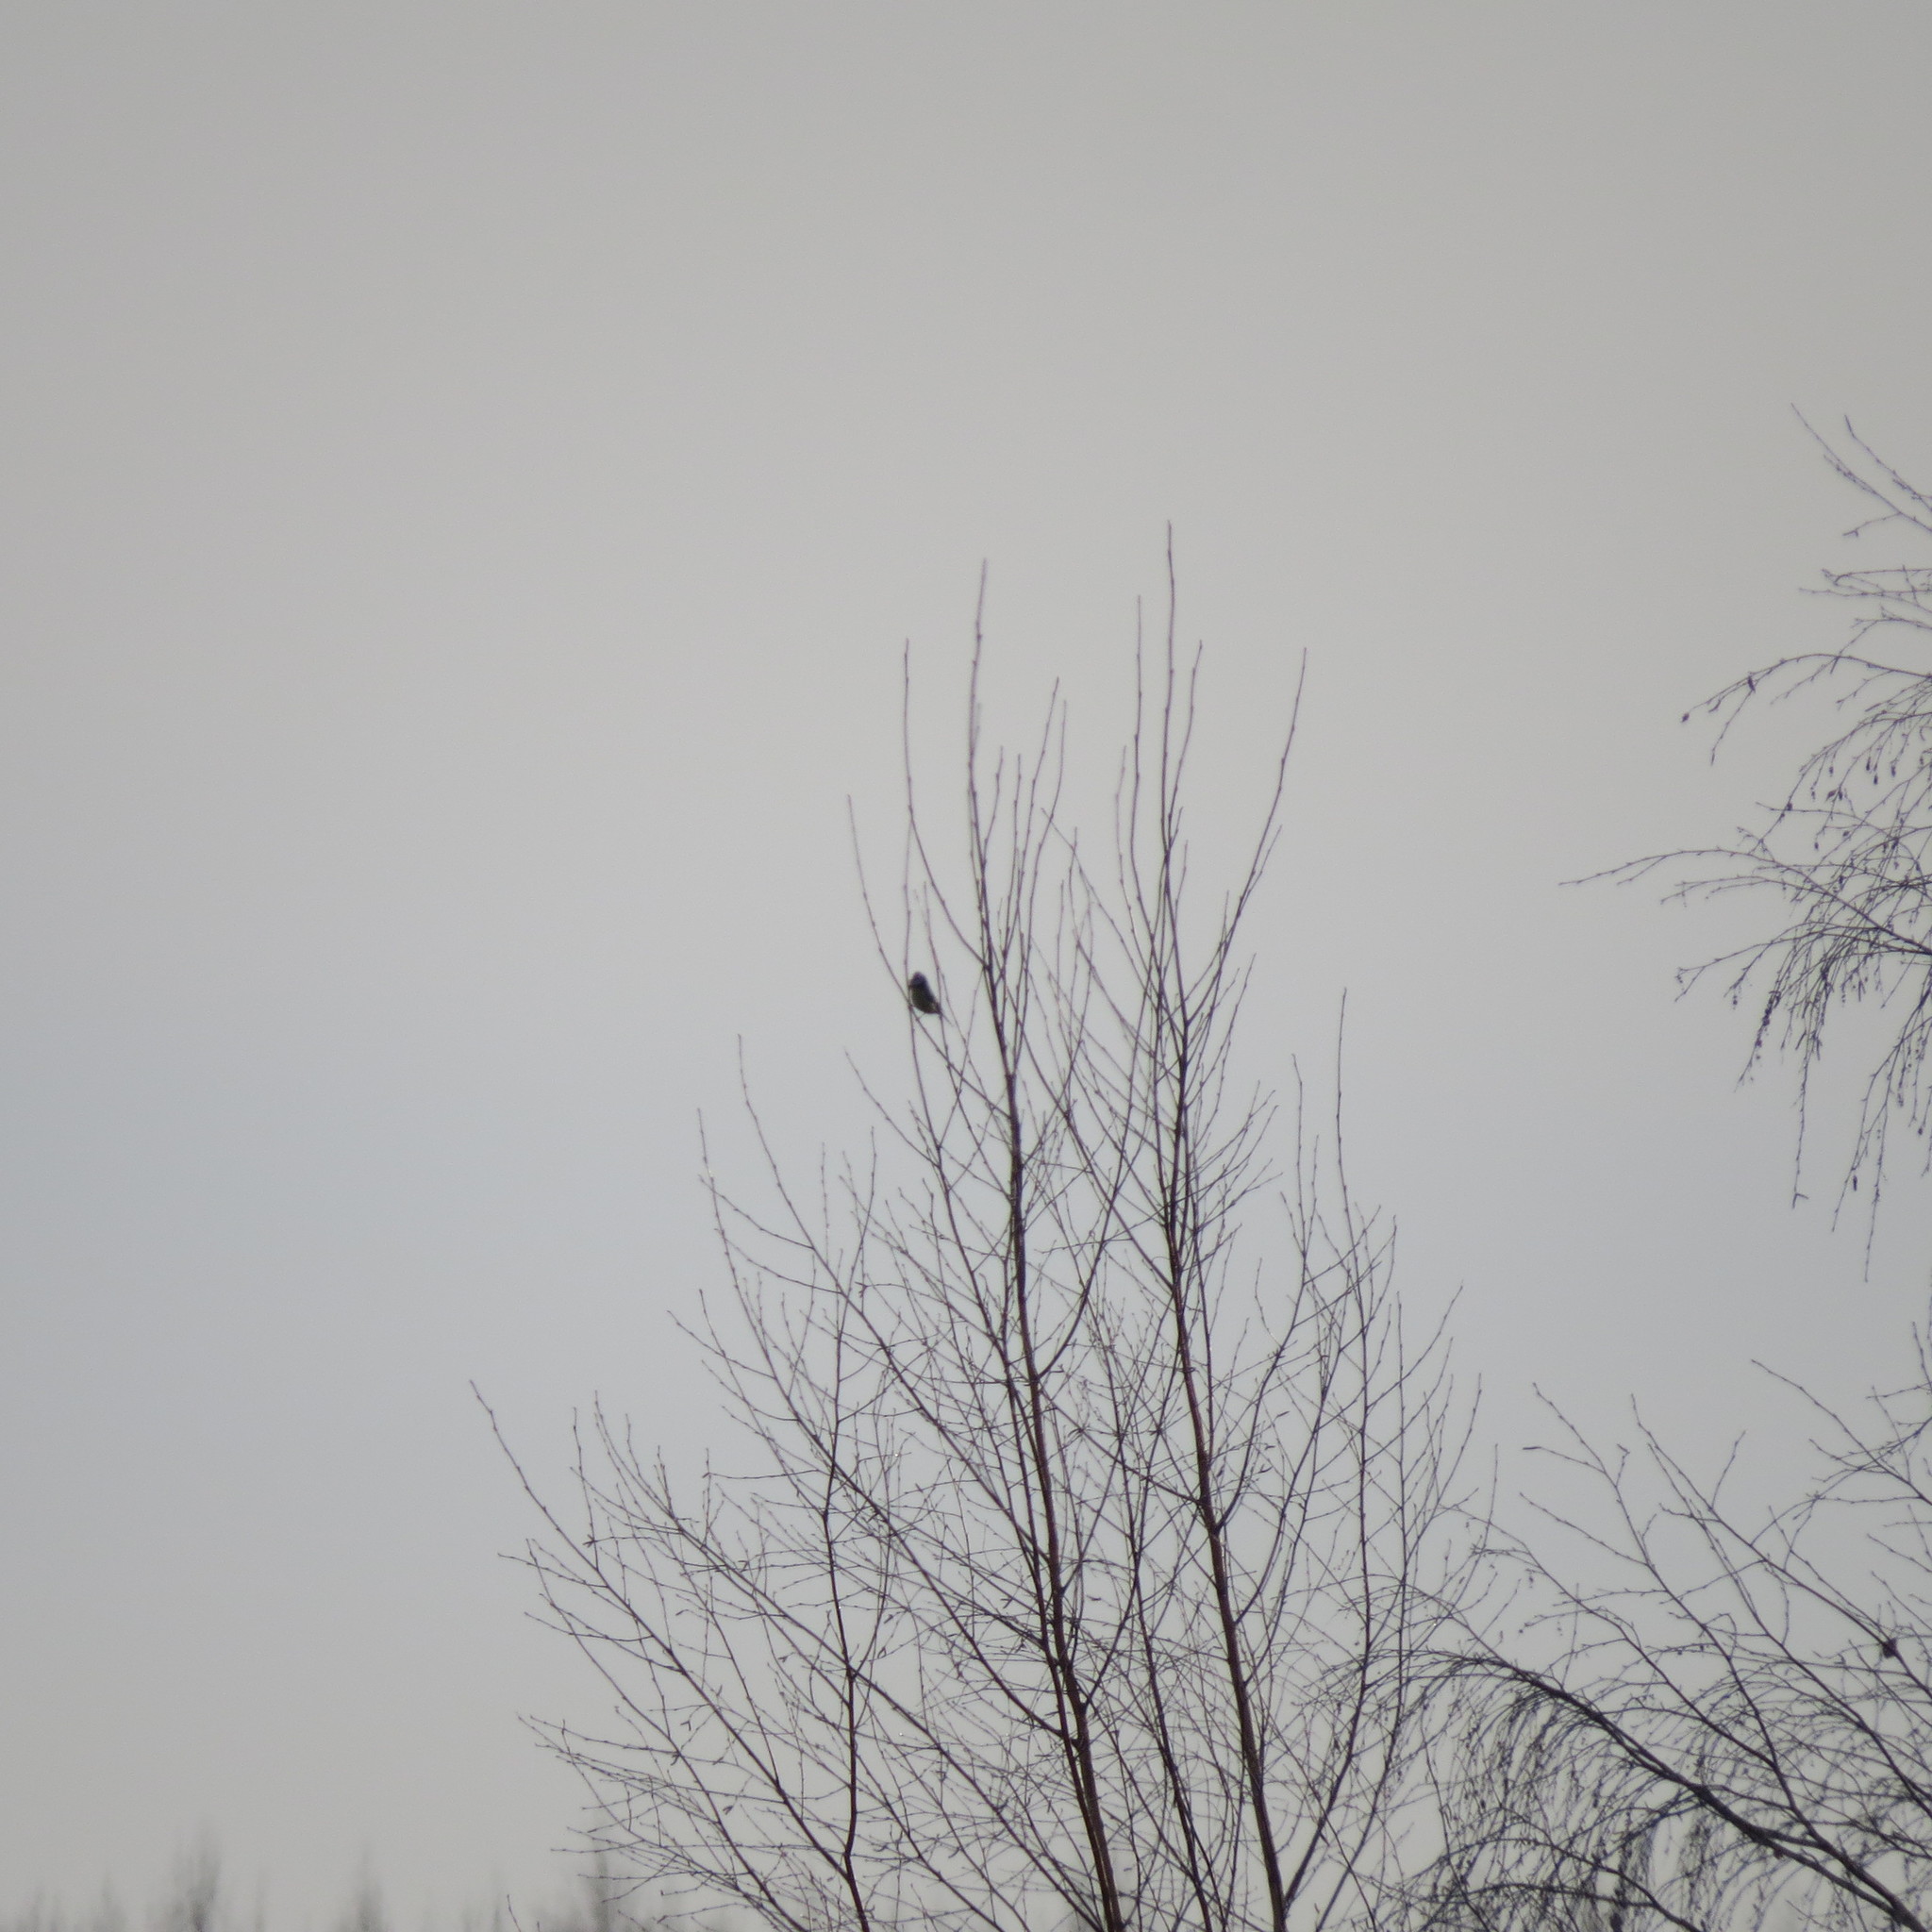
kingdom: Animalia
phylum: Chordata
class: Aves
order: Passeriformes
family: Paridae
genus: Cyanistes
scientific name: Cyanistes caeruleus
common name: Eurasian blue tit
